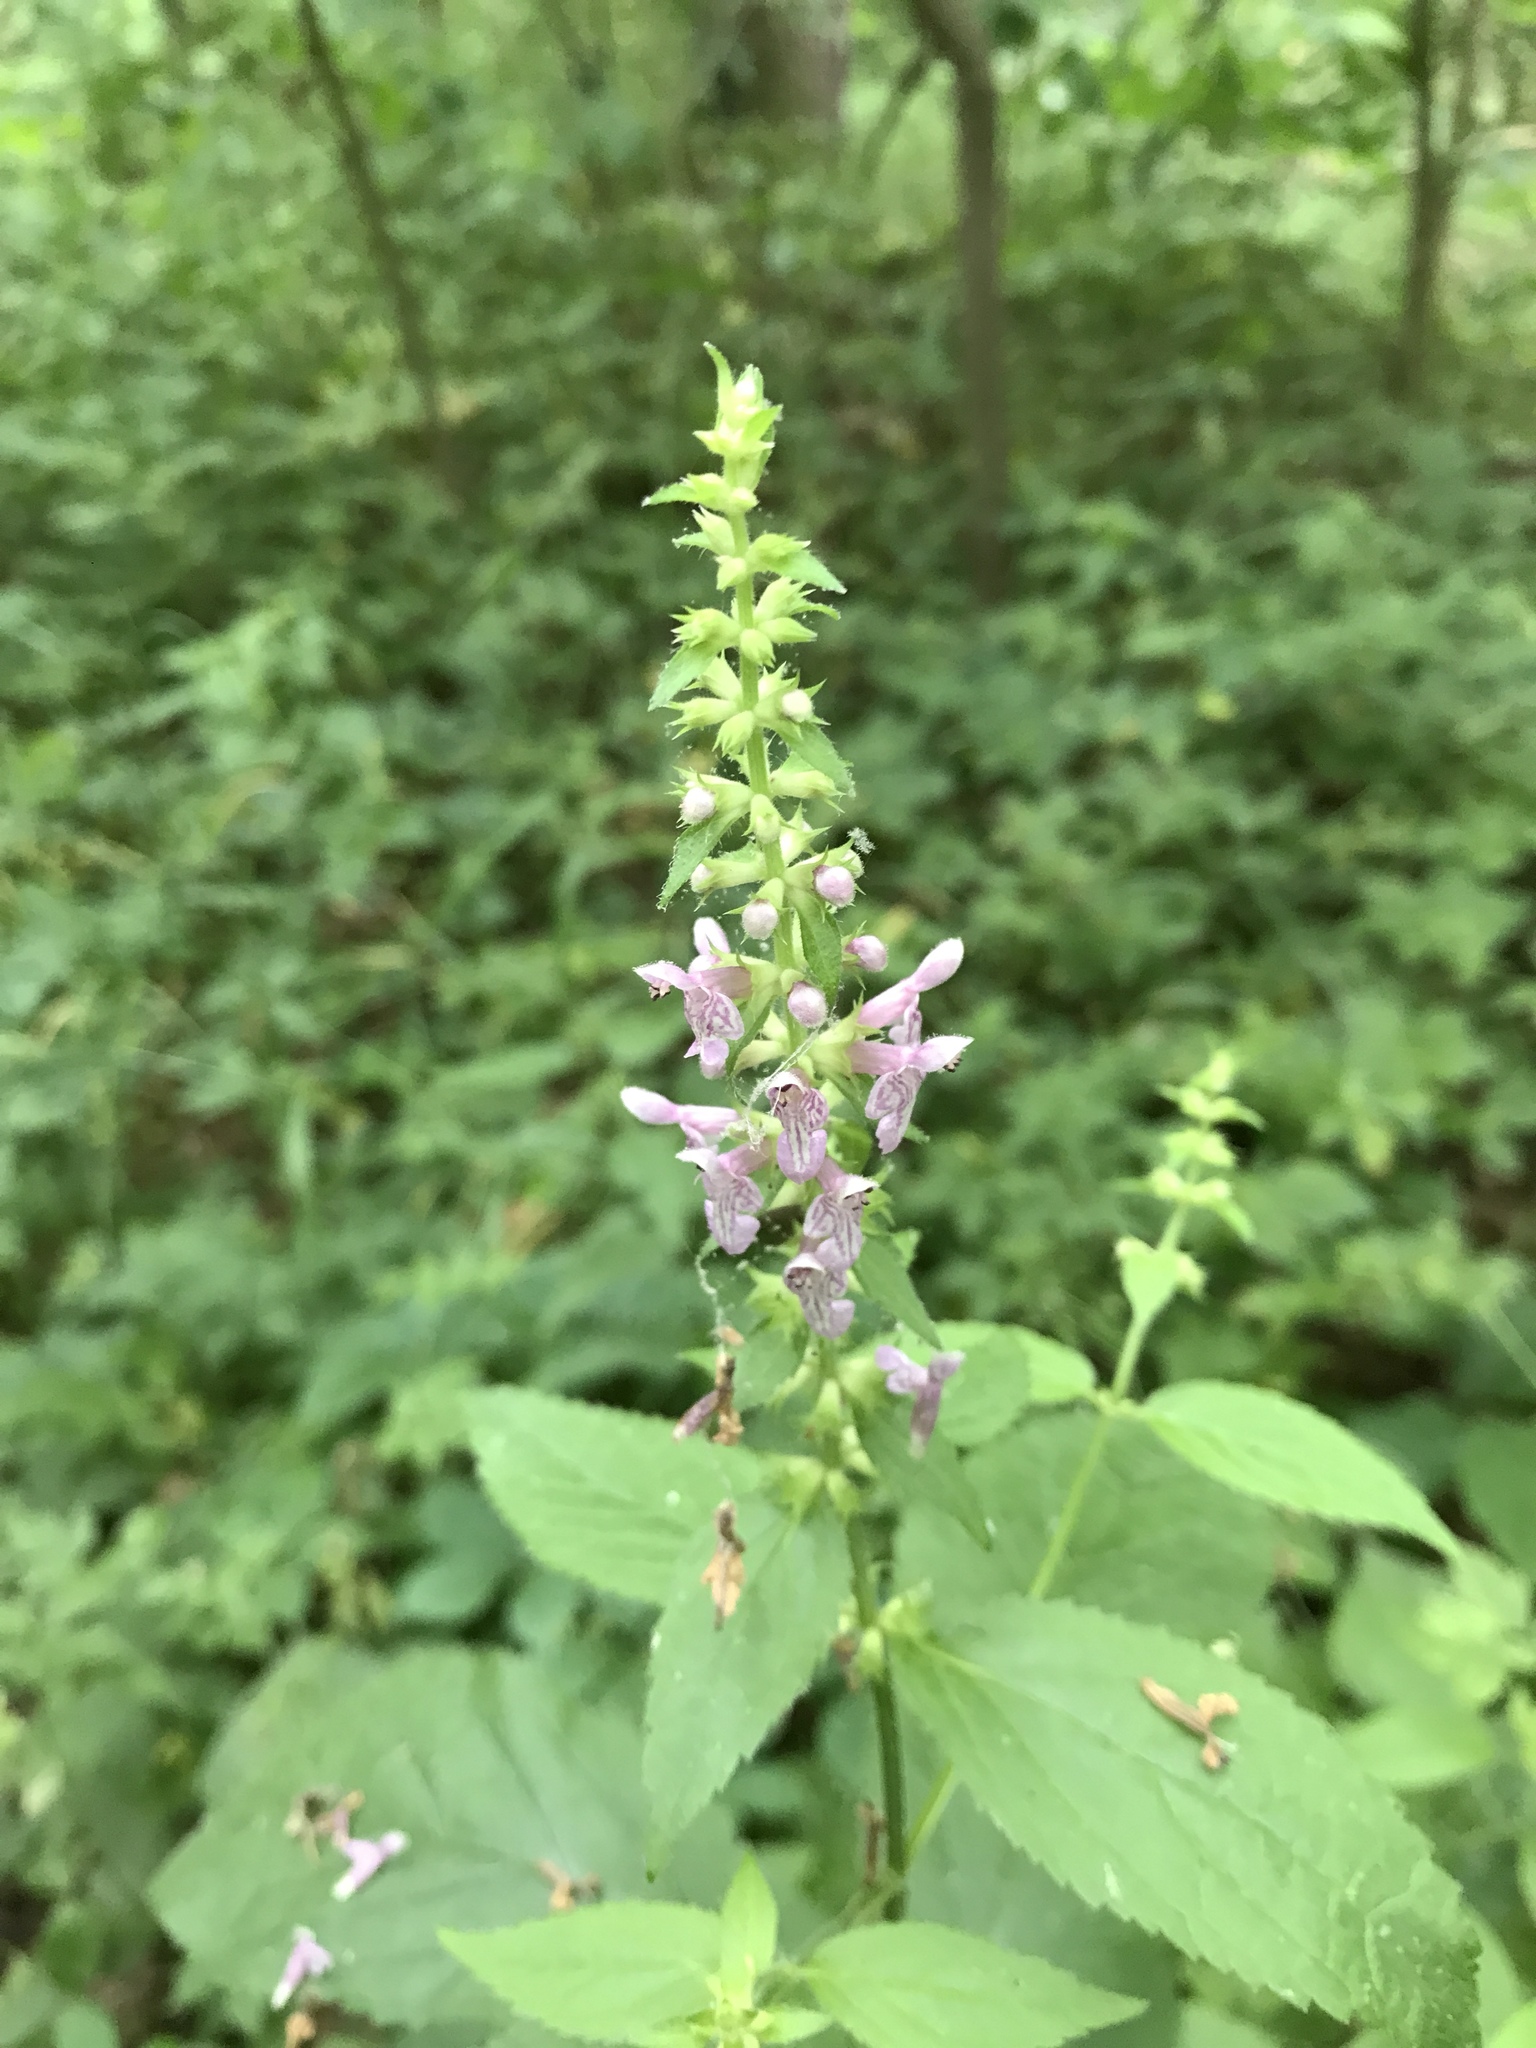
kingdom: Plantae
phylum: Tracheophyta
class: Magnoliopsida
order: Lamiales
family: Lamiaceae
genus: Stachys
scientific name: Stachys cordata
